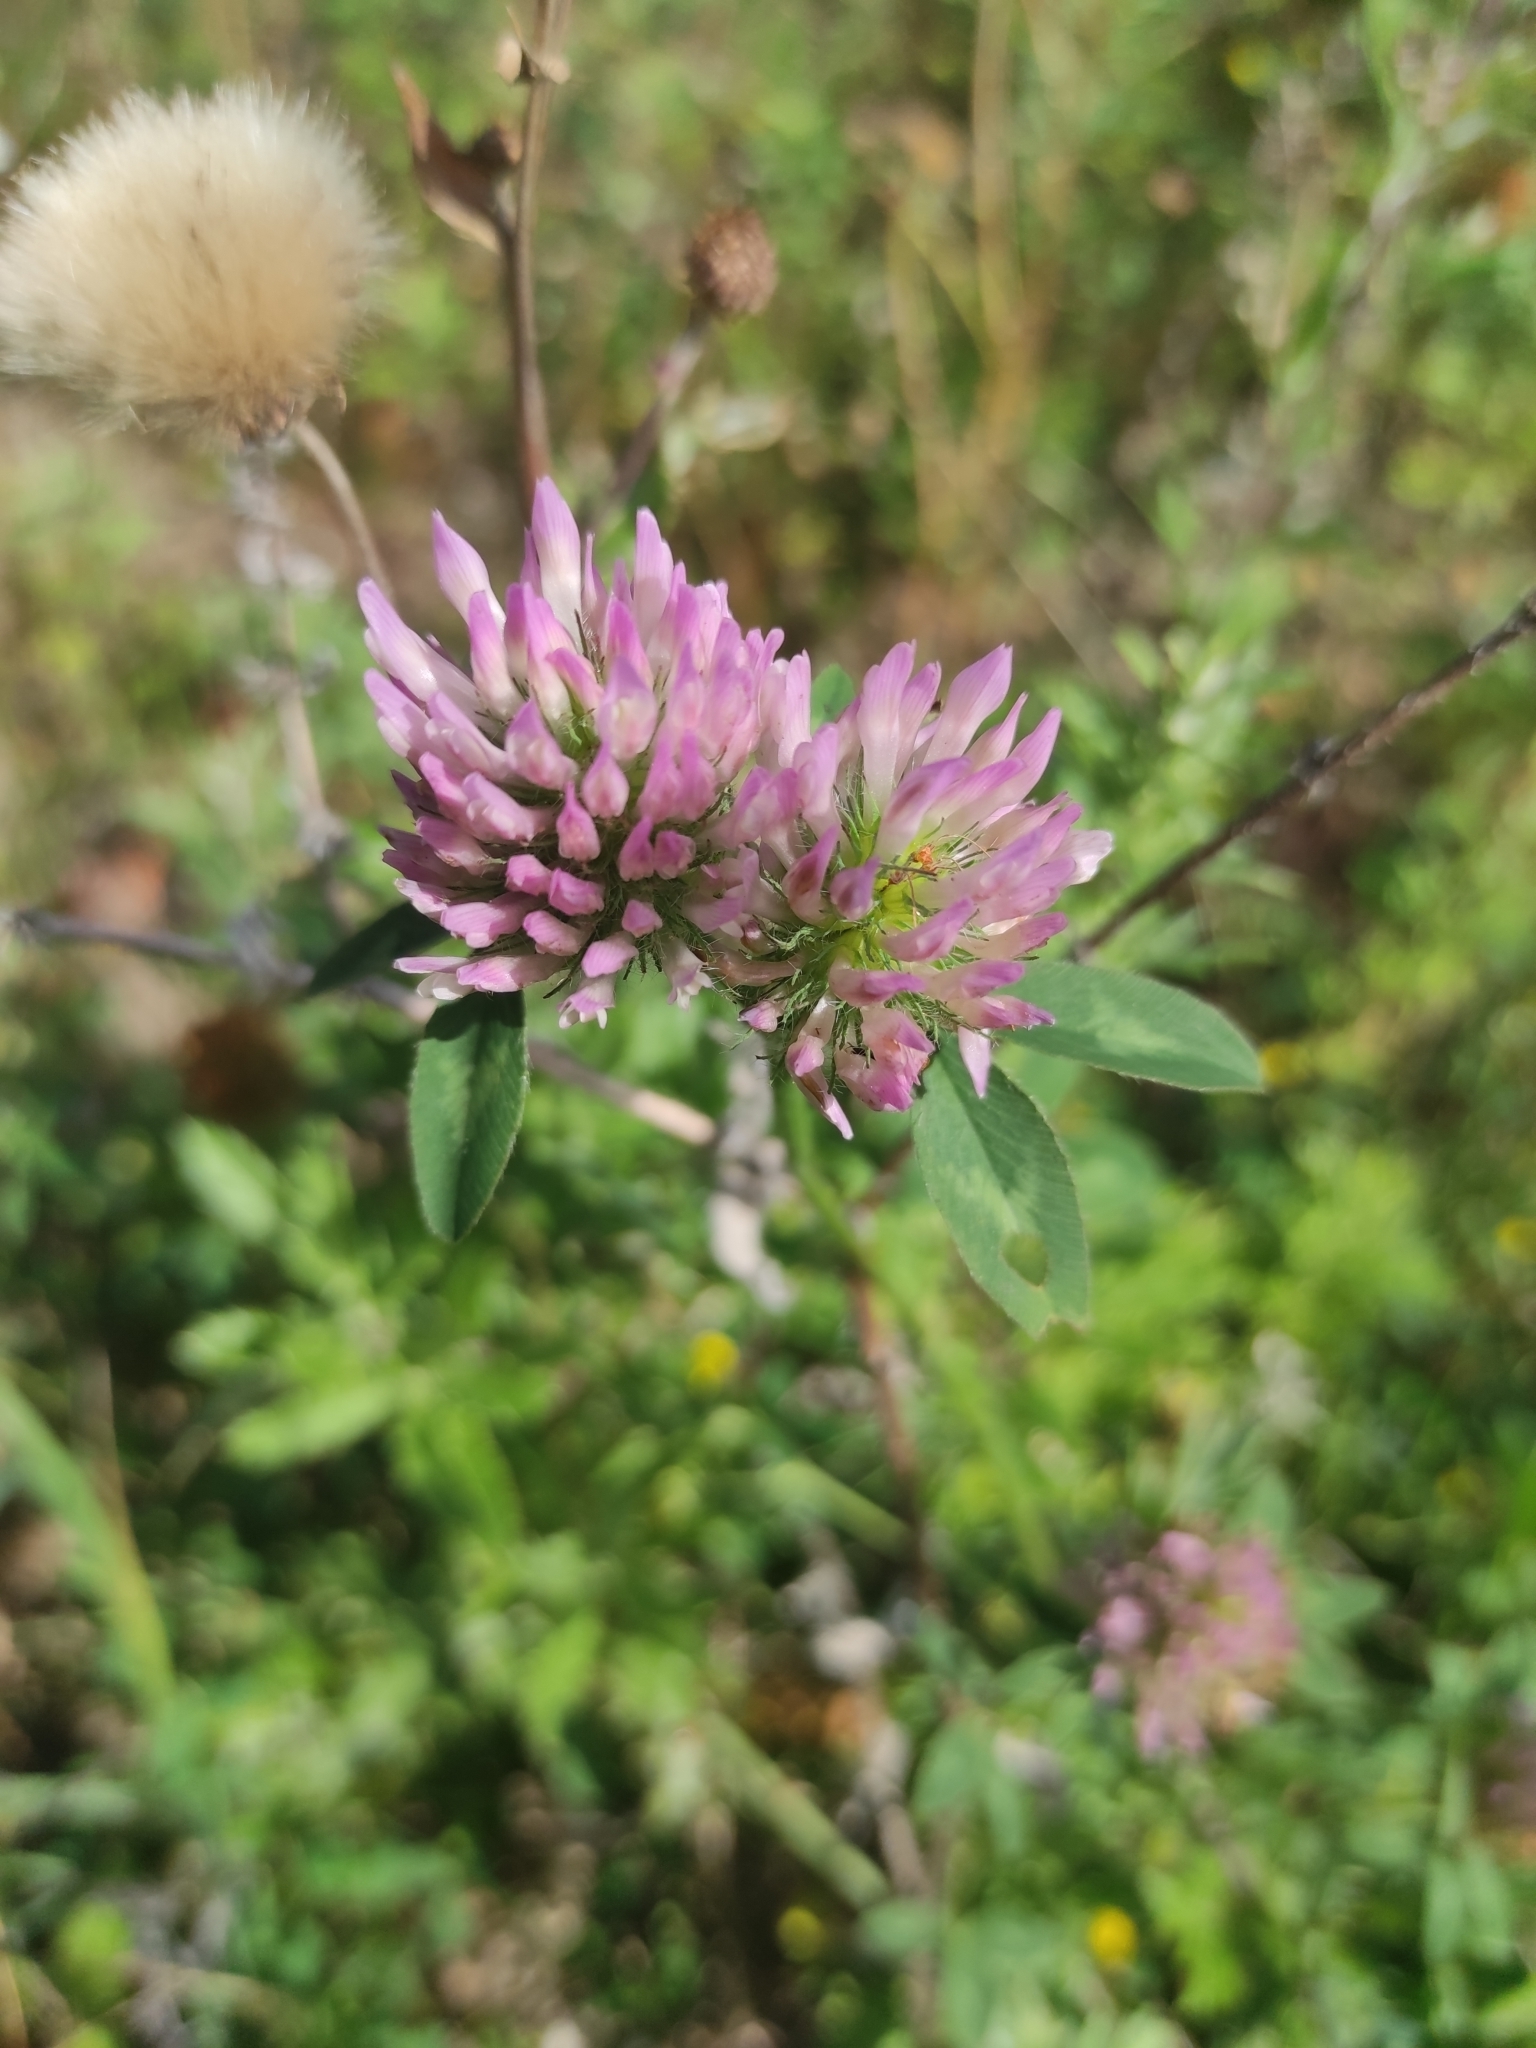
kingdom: Plantae
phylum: Tracheophyta
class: Magnoliopsida
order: Fabales
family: Fabaceae
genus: Trifolium
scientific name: Trifolium pratense
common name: Red clover
